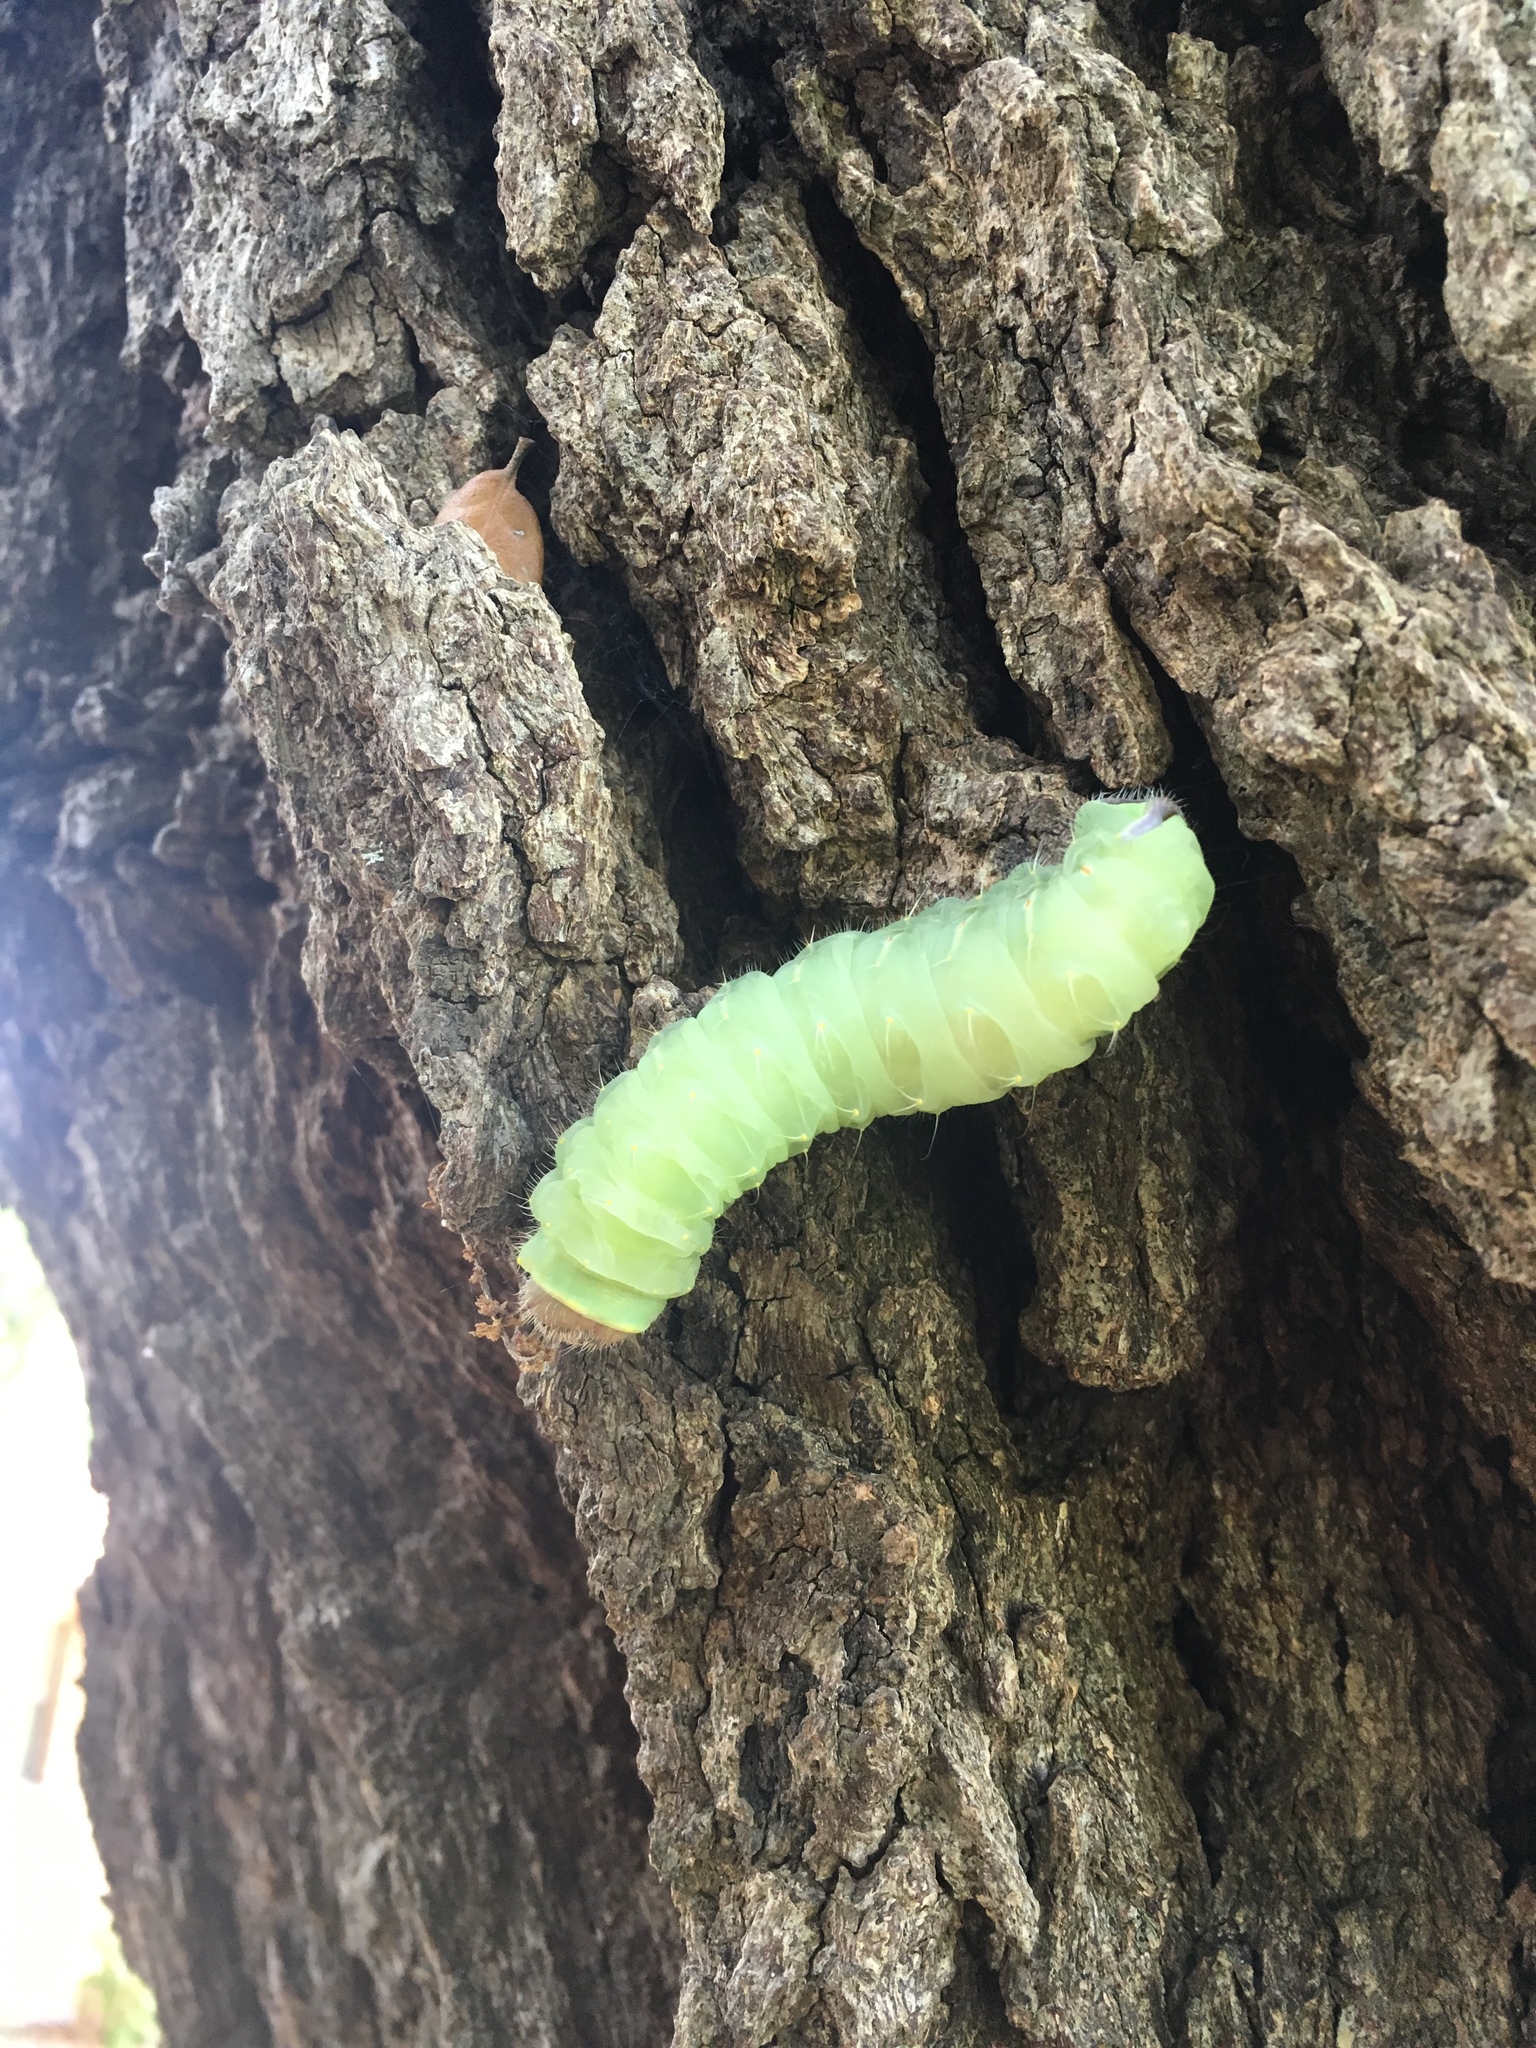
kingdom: Animalia
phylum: Arthropoda
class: Insecta
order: Lepidoptera
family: Saturniidae
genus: Antheraea
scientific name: Antheraea polyphemus
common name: Polyphemus moth
